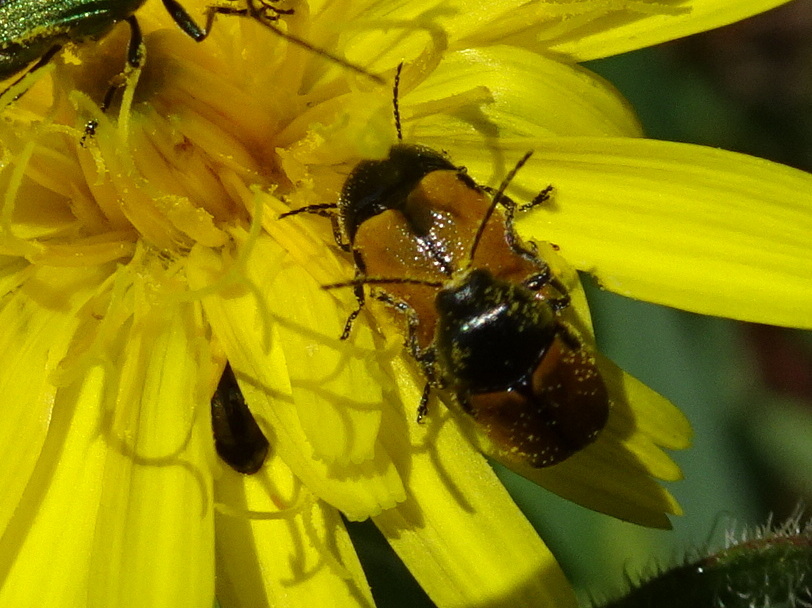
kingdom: Animalia
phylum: Arthropoda
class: Insecta
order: Coleoptera
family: Chrysomelidae
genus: Cryptocephalus
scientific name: Cryptocephalus rugicollis
